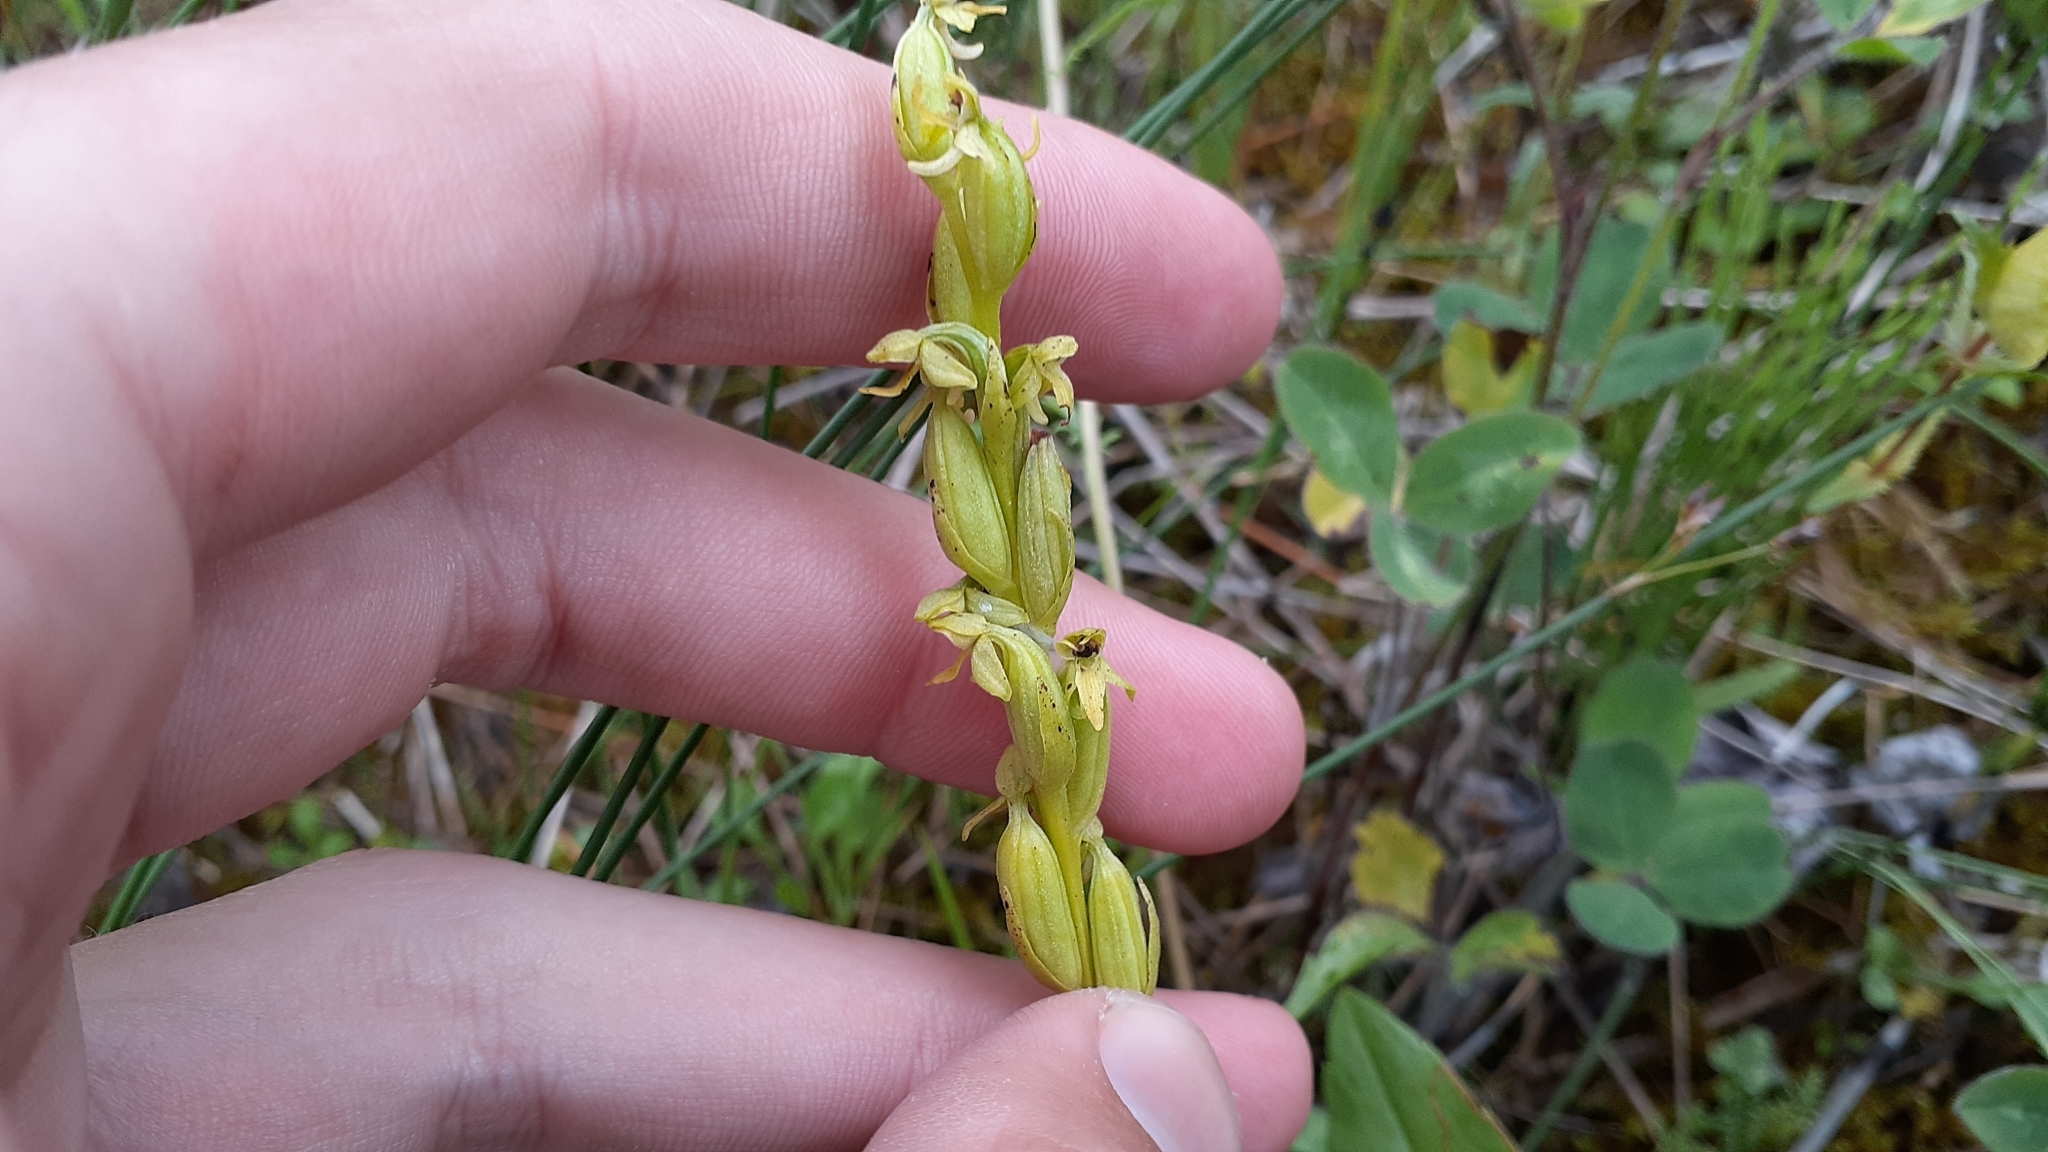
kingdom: Plantae
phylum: Tracheophyta
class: Liliopsida
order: Asparagales
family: Orchidaceae
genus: Platanthera
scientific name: Platanthera aquilonis
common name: Northern green orchid
